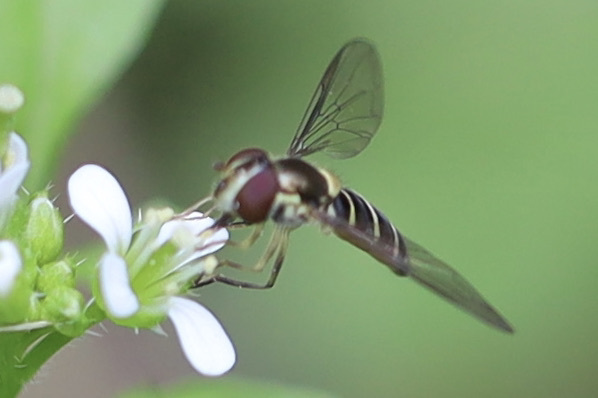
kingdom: Animalia
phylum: Arthropoda
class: Insecta
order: Diptera
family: Syrphidae
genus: Fazia
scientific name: Fazia micrura
